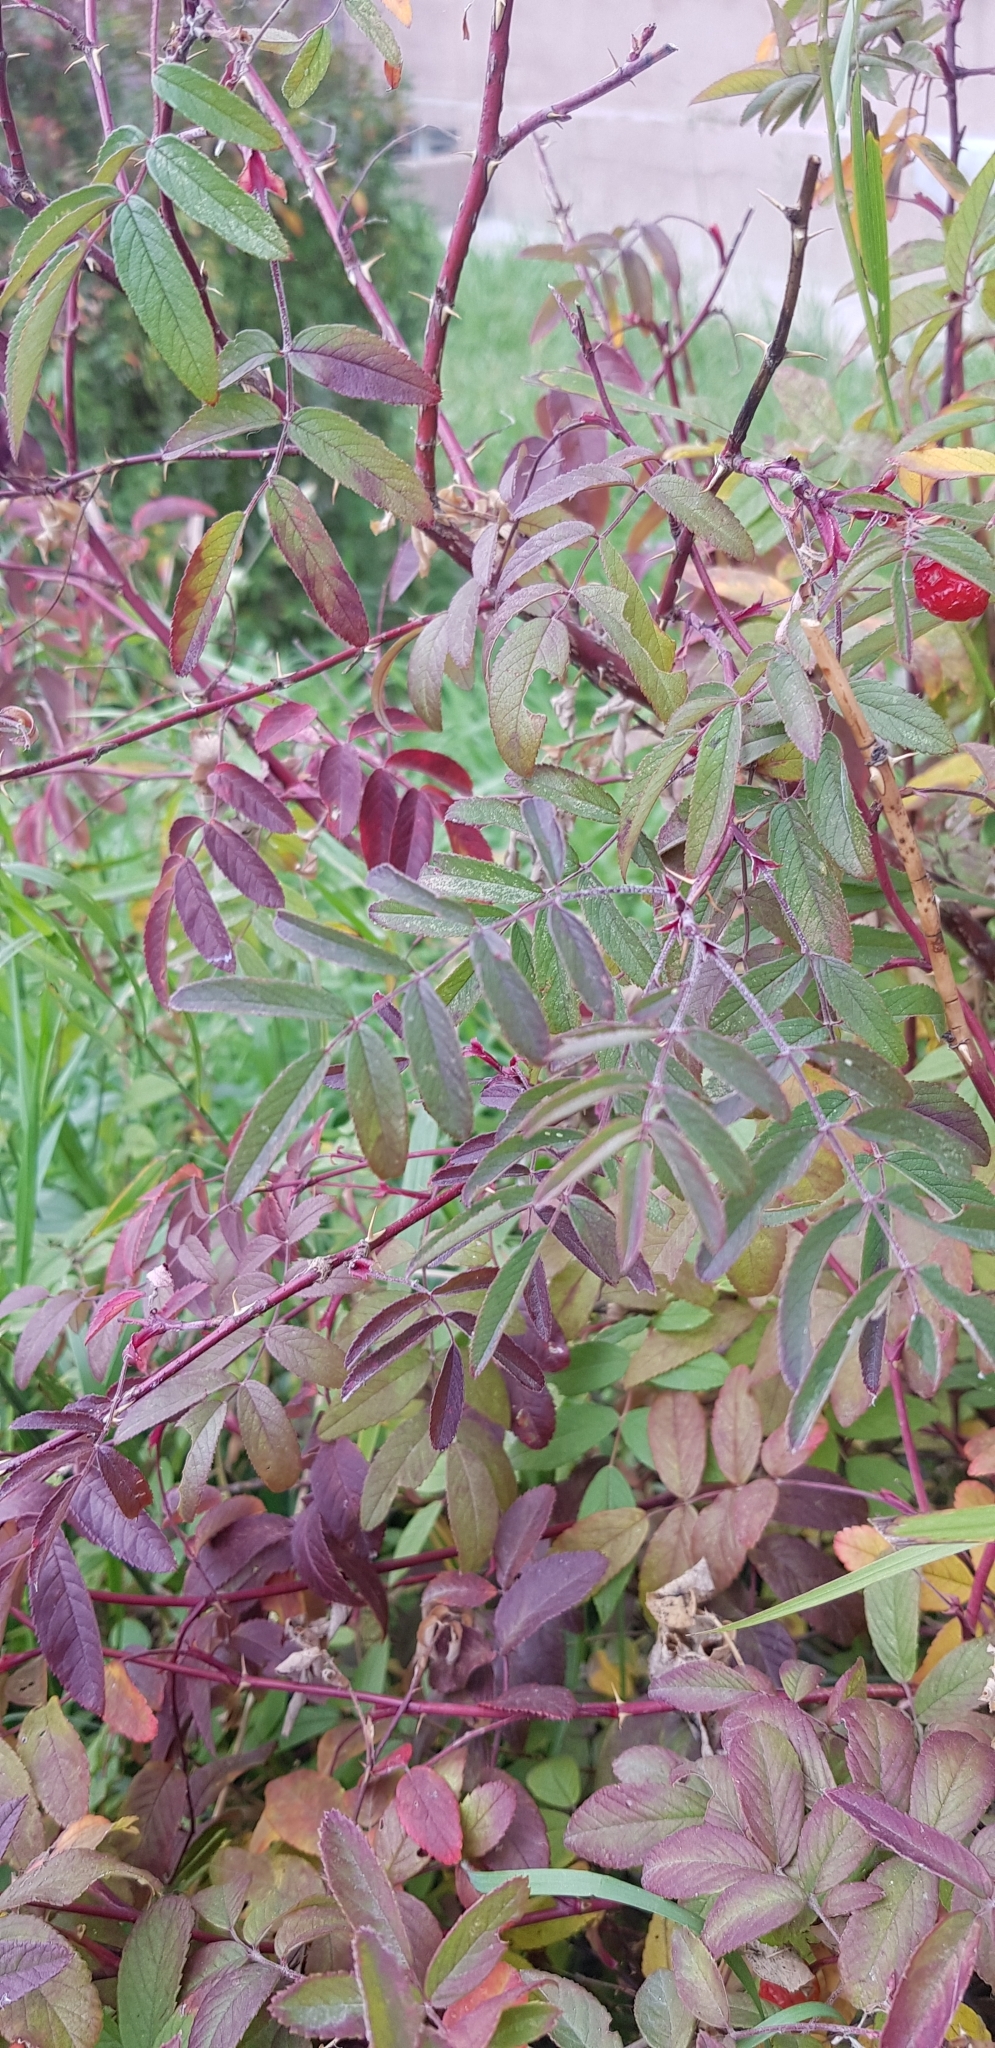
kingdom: Plantae
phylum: Tracheophyta
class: Magnoliopsida
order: Rosales
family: Rosaceae
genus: Rosa
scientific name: Rosa acicularis
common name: Prickly rose
